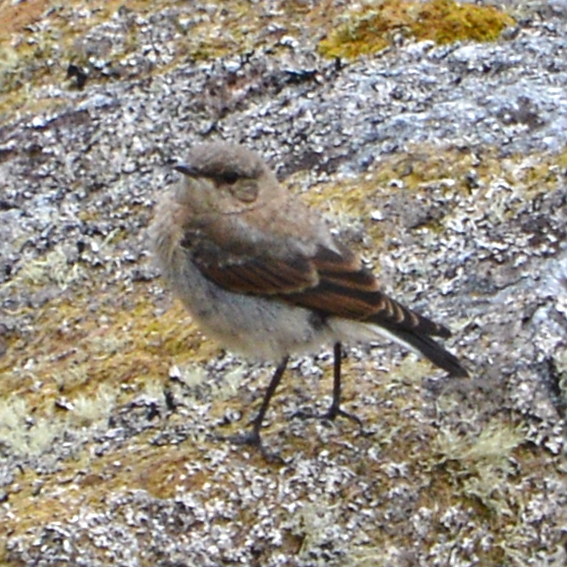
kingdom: Animalia
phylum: Chordata
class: Aves
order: Passeriformes
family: Muscicapidae
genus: Oenanthe
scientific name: Oenanthe oenanthe
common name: Northern wheatear
